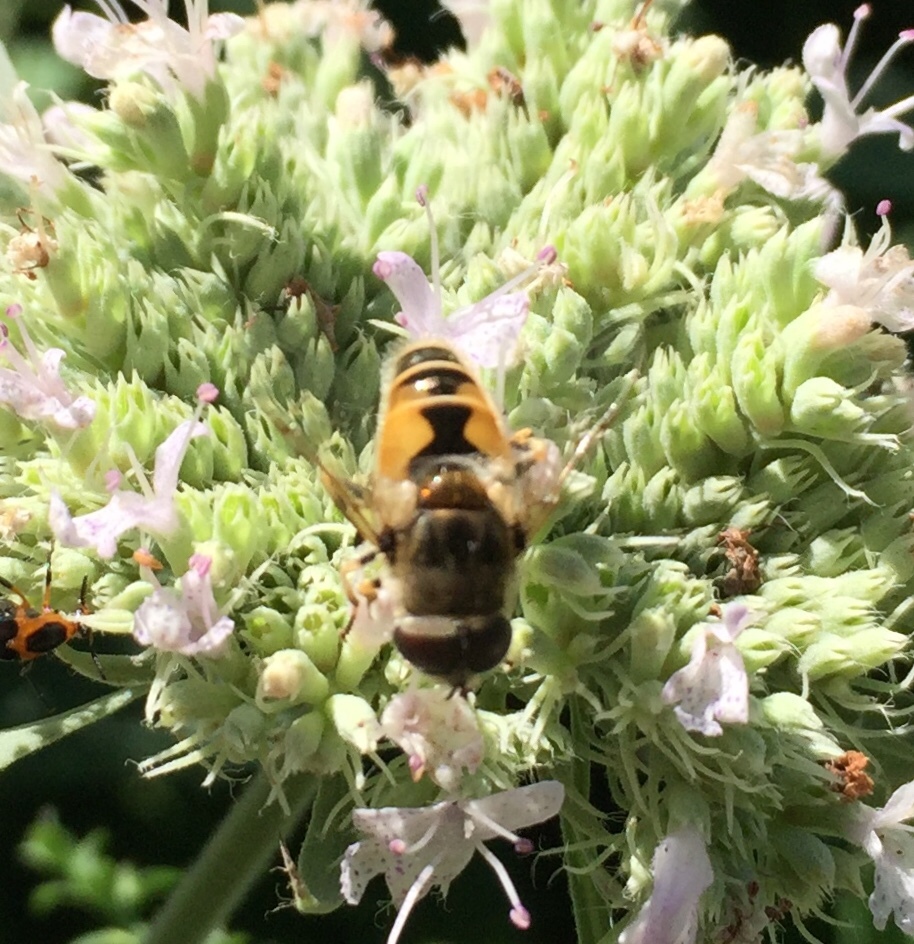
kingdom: Animalia
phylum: Arthropoda
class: Insecta
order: Diptera
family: Syrphidae
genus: Eristalis
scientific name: Eristalis arbustorum
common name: Hover fly
